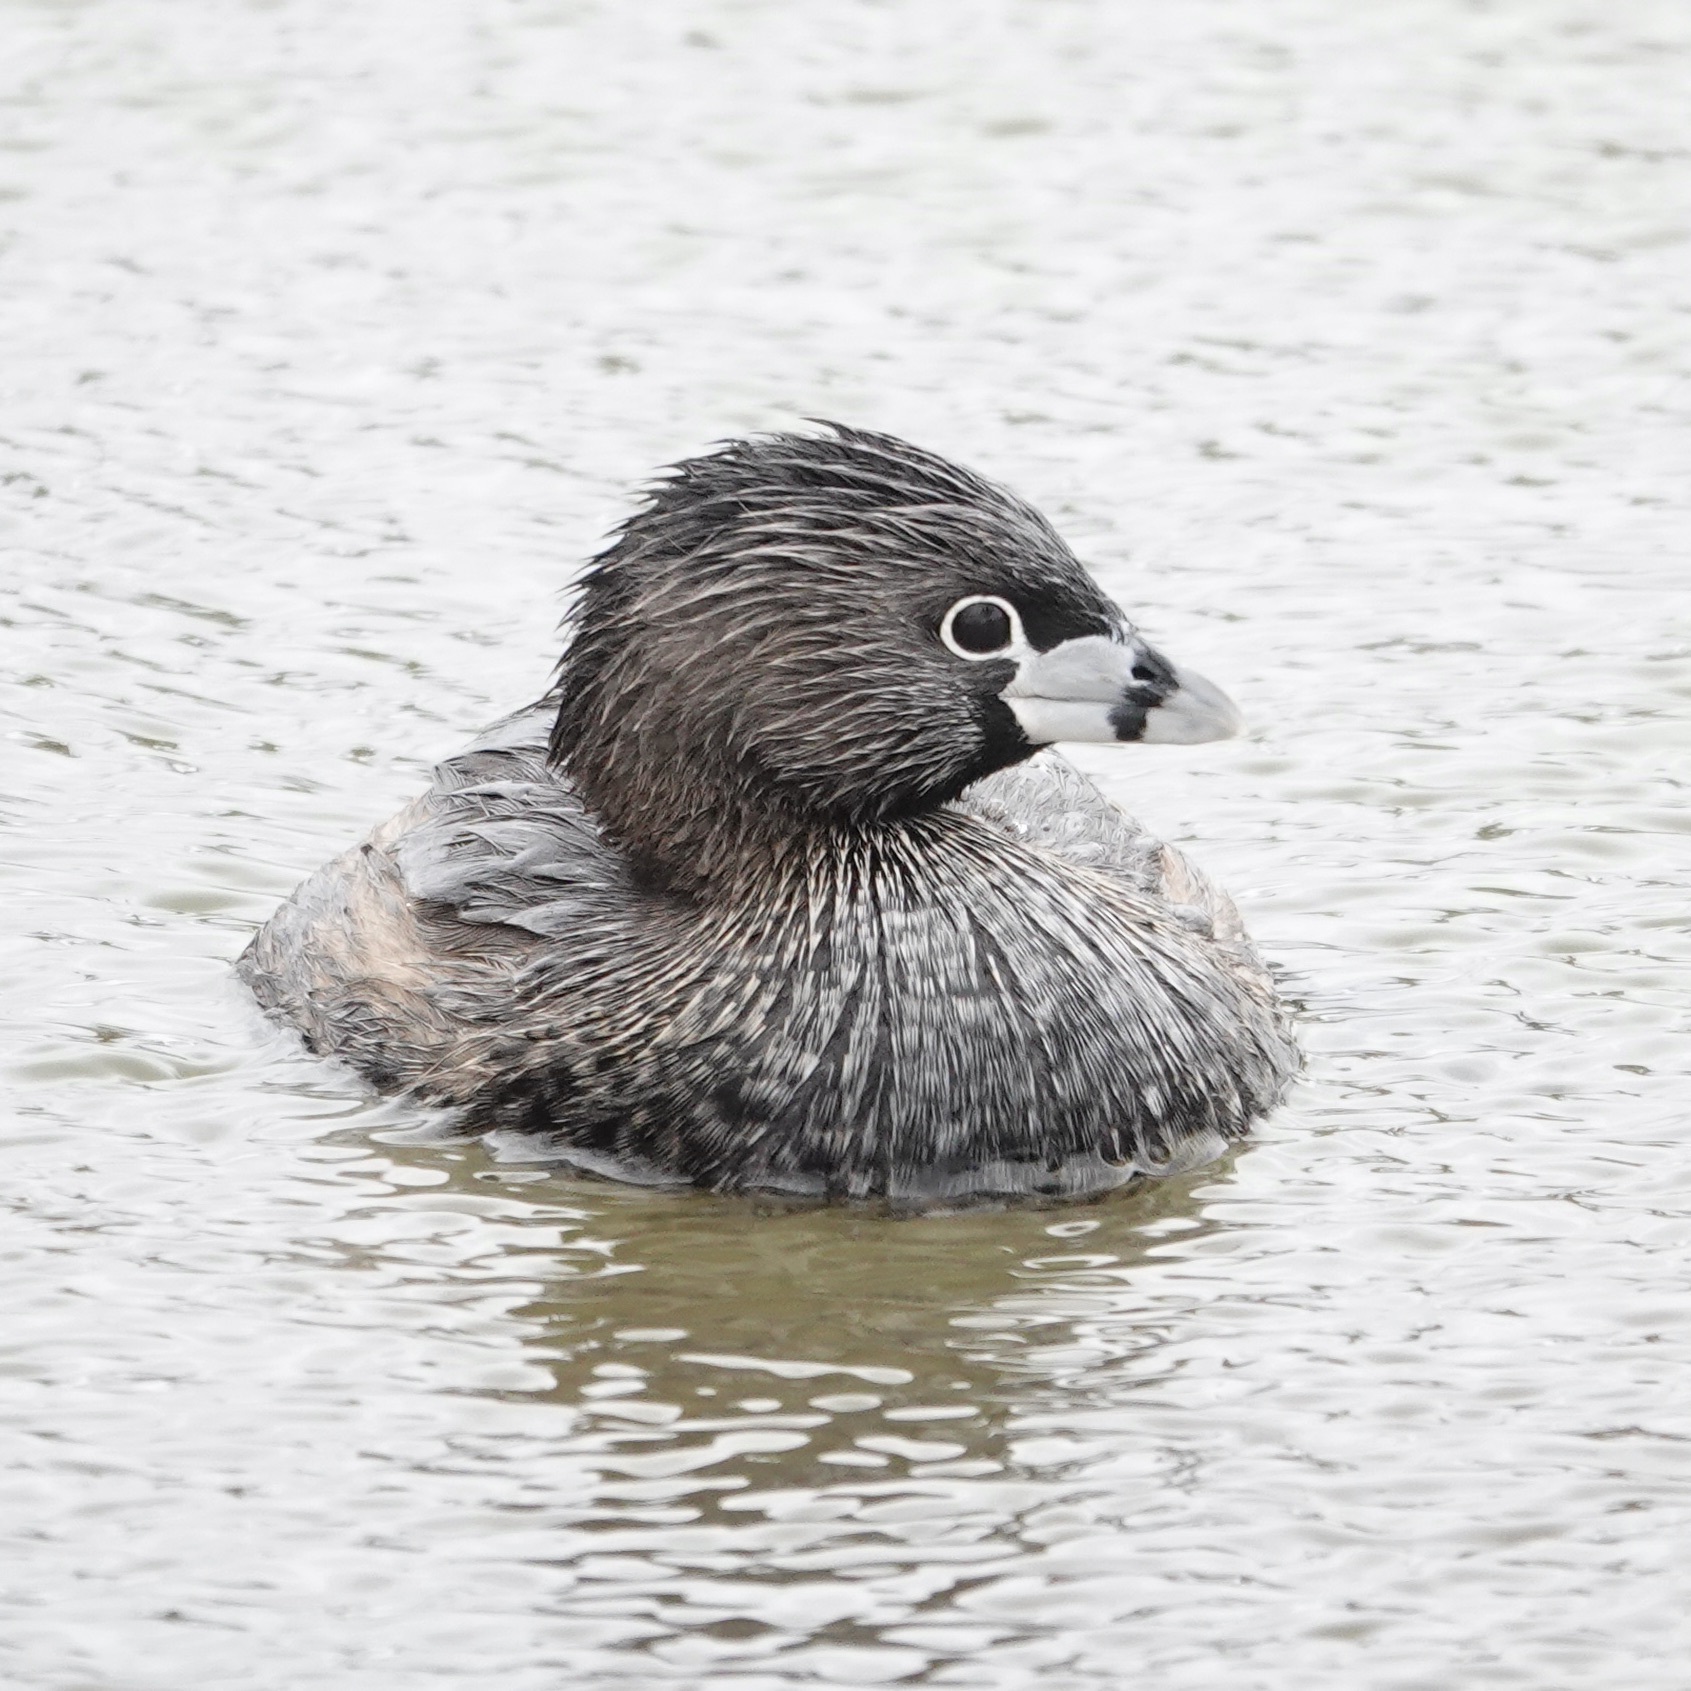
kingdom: Animalia
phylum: Chordata
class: Aves
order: Podicipediformes
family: Podicipedidae
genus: Podilymbus
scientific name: Podilymbus podiceps
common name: Pied-billed grebe
